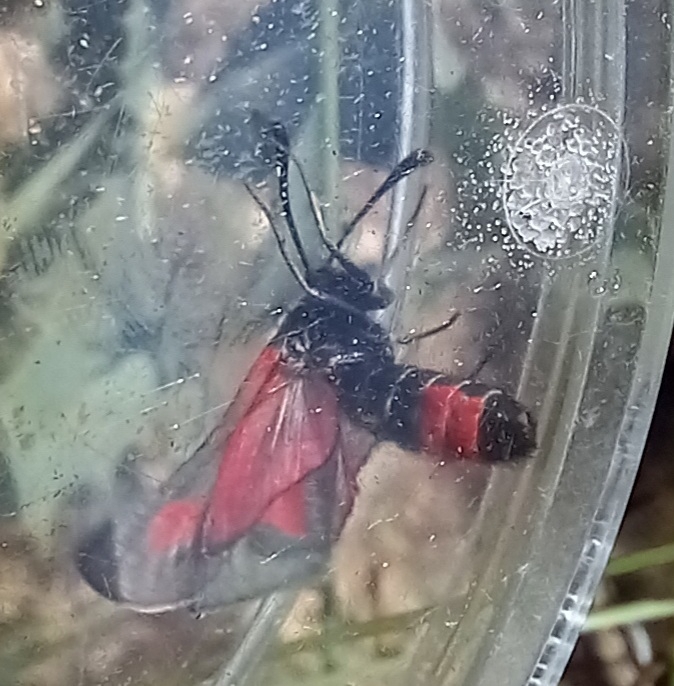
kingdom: Animalia
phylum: Arthropoda
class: Insecta
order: Lepidoptera
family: Zygaenidae
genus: Zygaena
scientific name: Zygaena sarpedon
